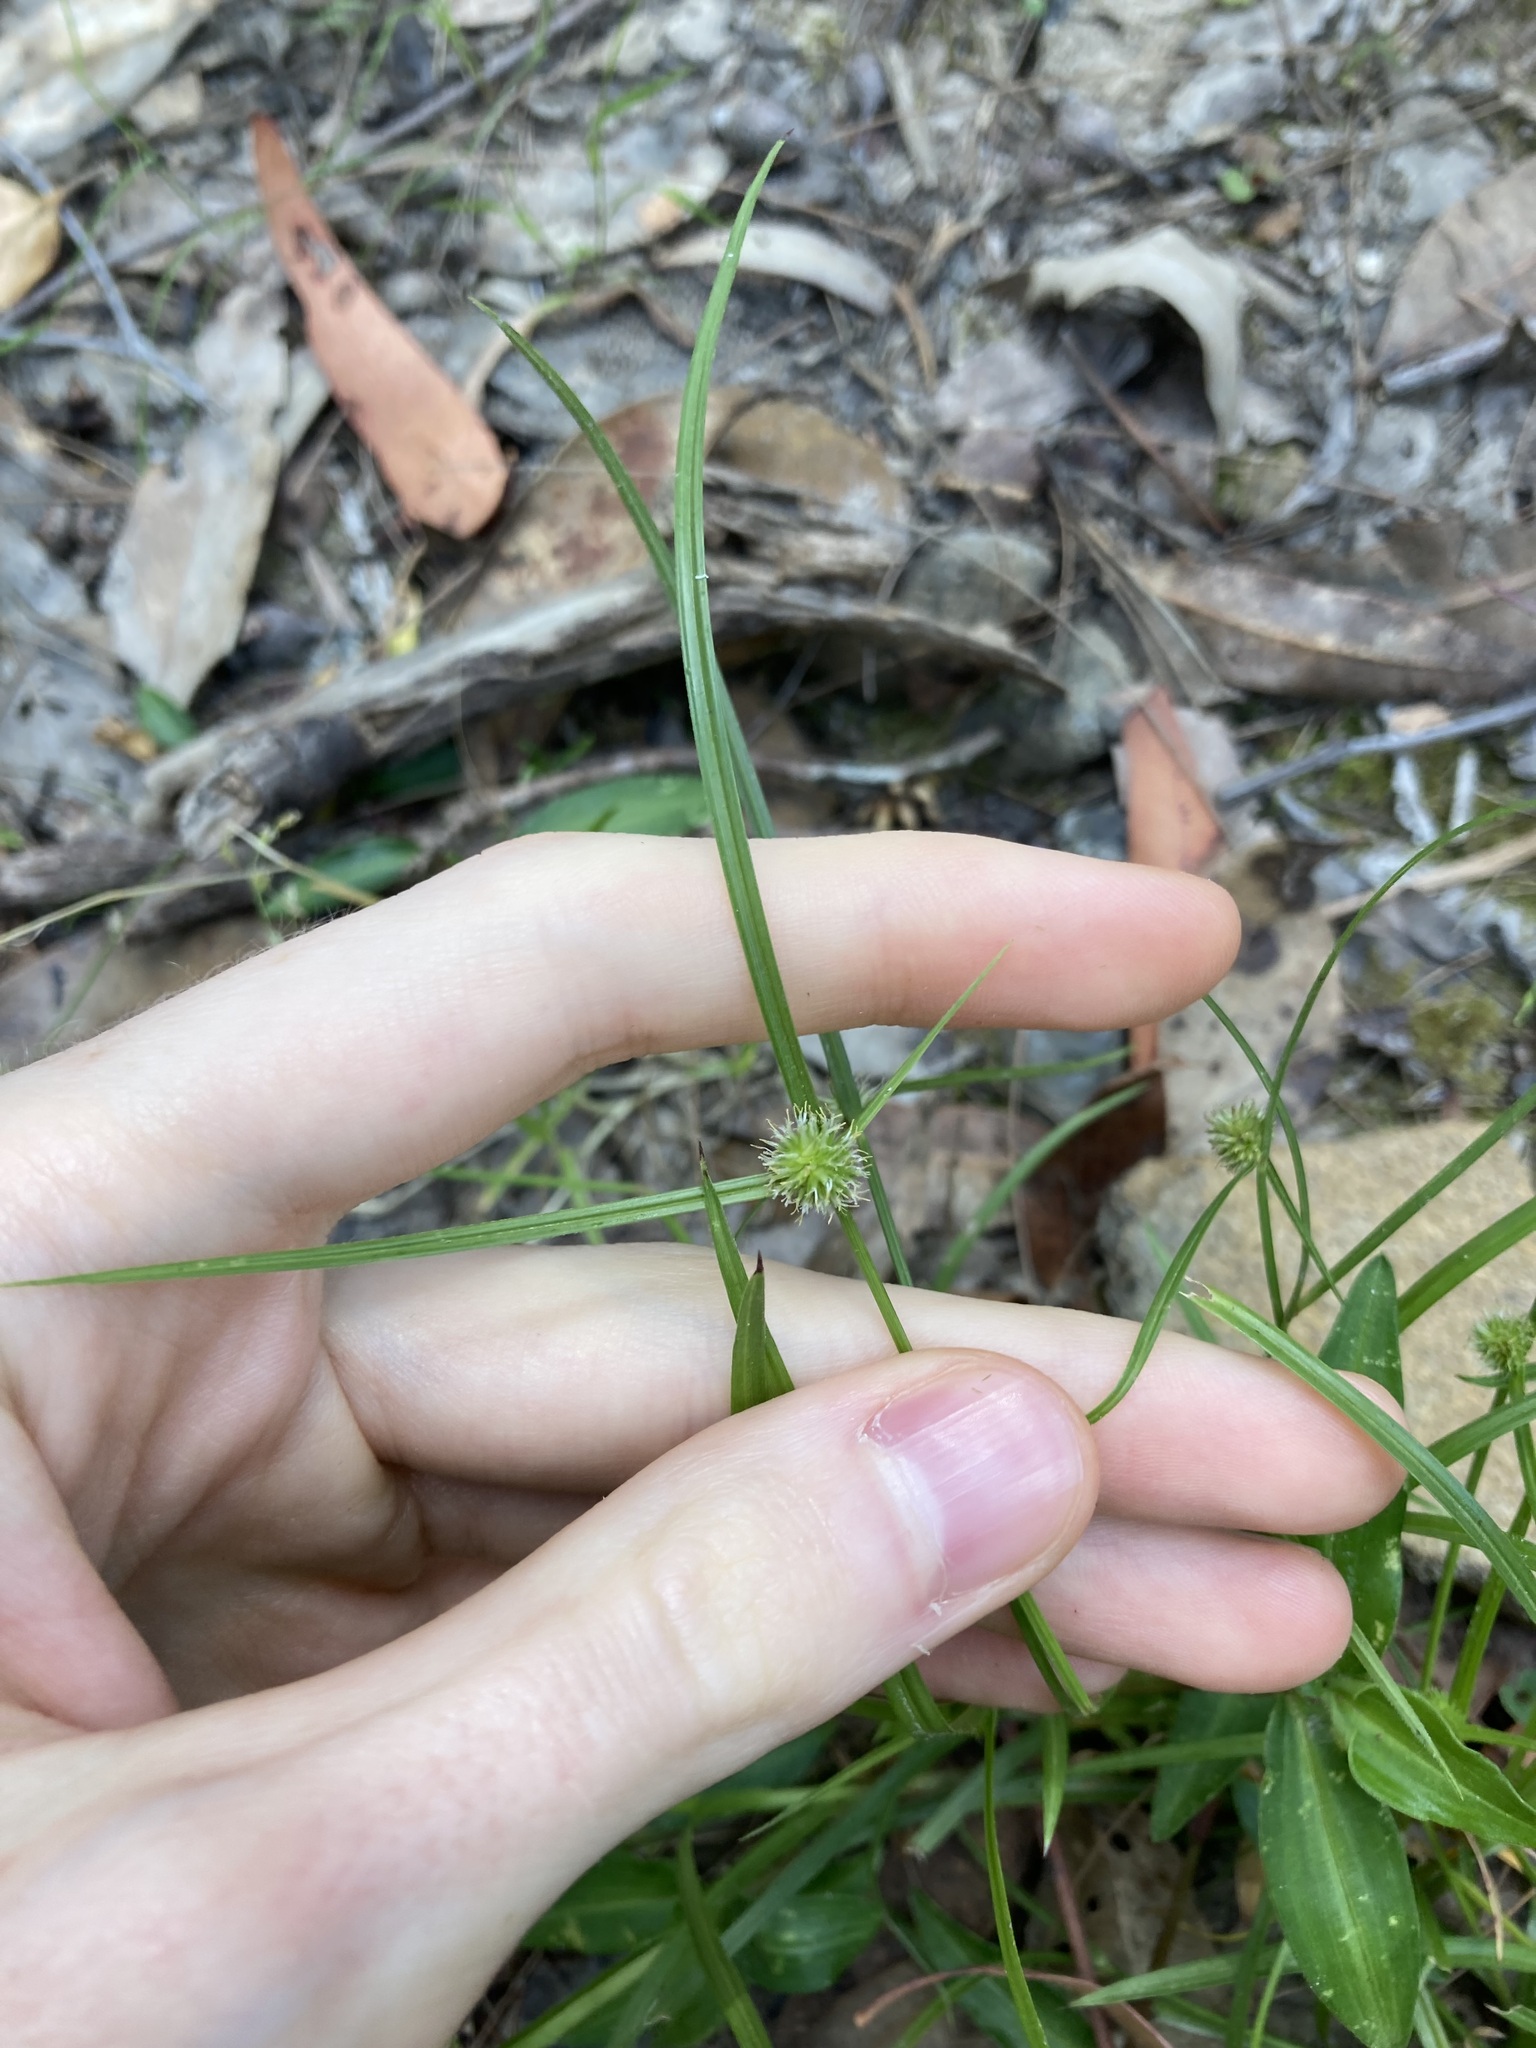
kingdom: Plantae
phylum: Tracheophyta
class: Liliopsida
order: Poales
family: Cyperaceae
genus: Cyperus
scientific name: Cyperus brevifolius
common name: Globe kyllinga
